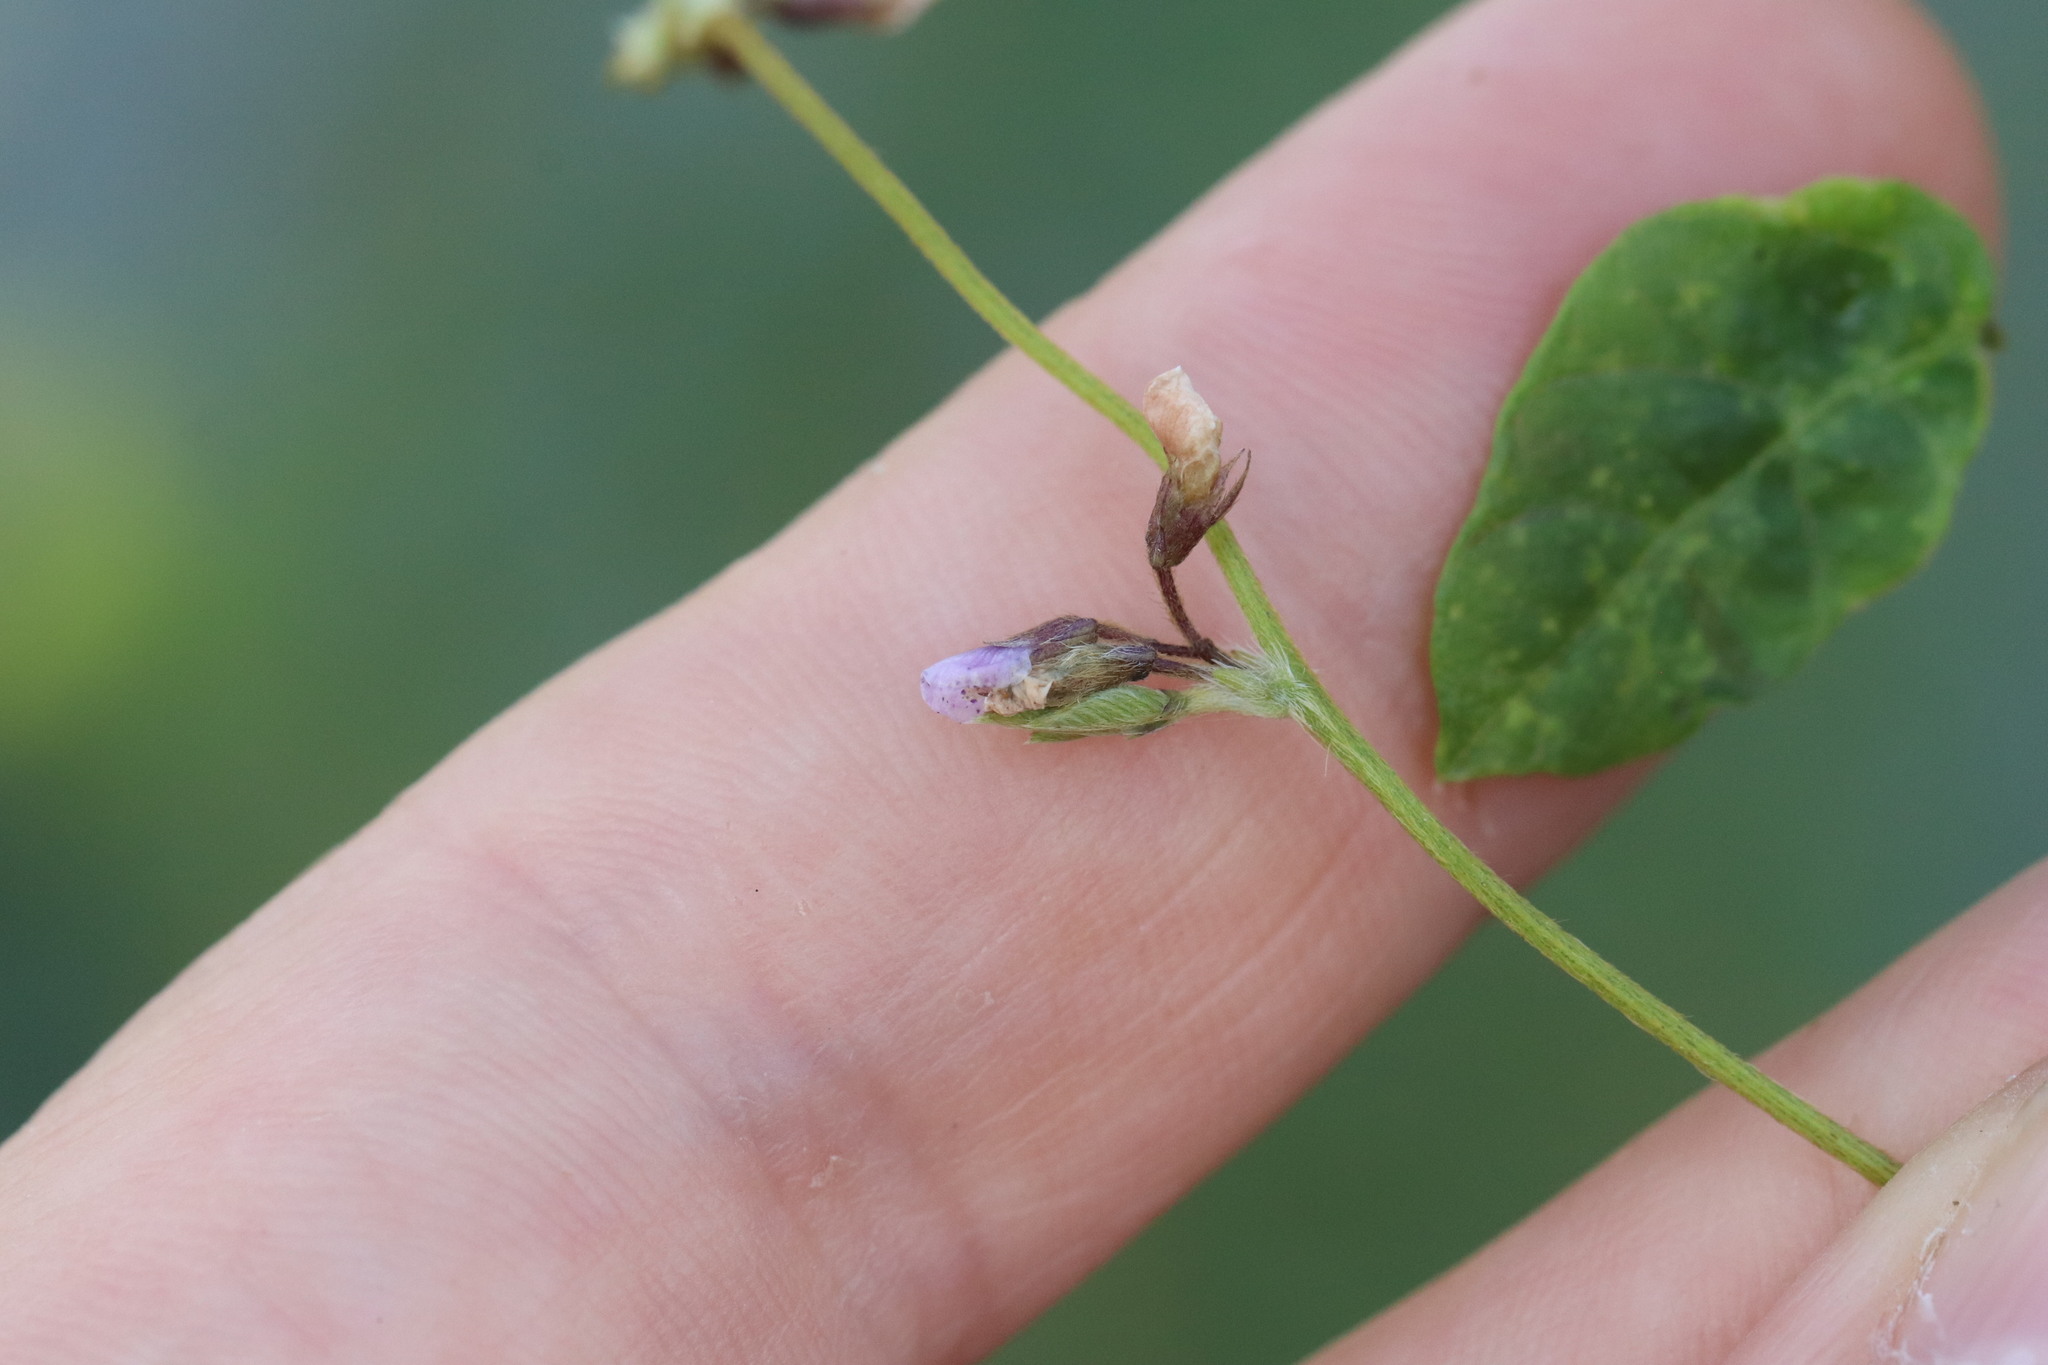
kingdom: Plantae
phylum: Tracheophyta
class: Magnoliopsida
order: Fabales
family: Fabaceae
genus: Glycine
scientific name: Glycine max
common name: Soya-bean
